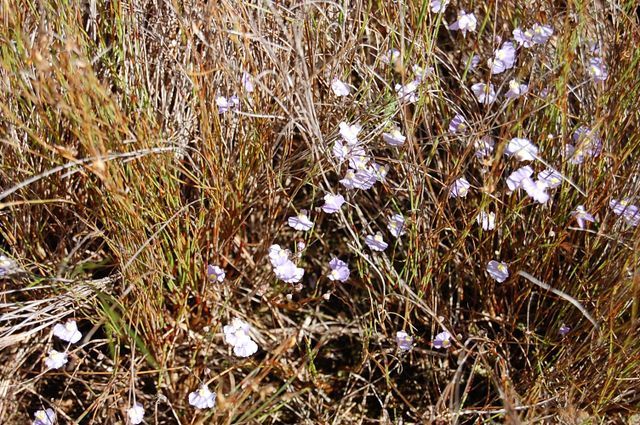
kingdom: Plantae
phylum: Tracheophyta
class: Magnoliopsida
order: Lamiales
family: Lentibulariaceae
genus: Utricularia
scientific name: Utricularia bisquamata
